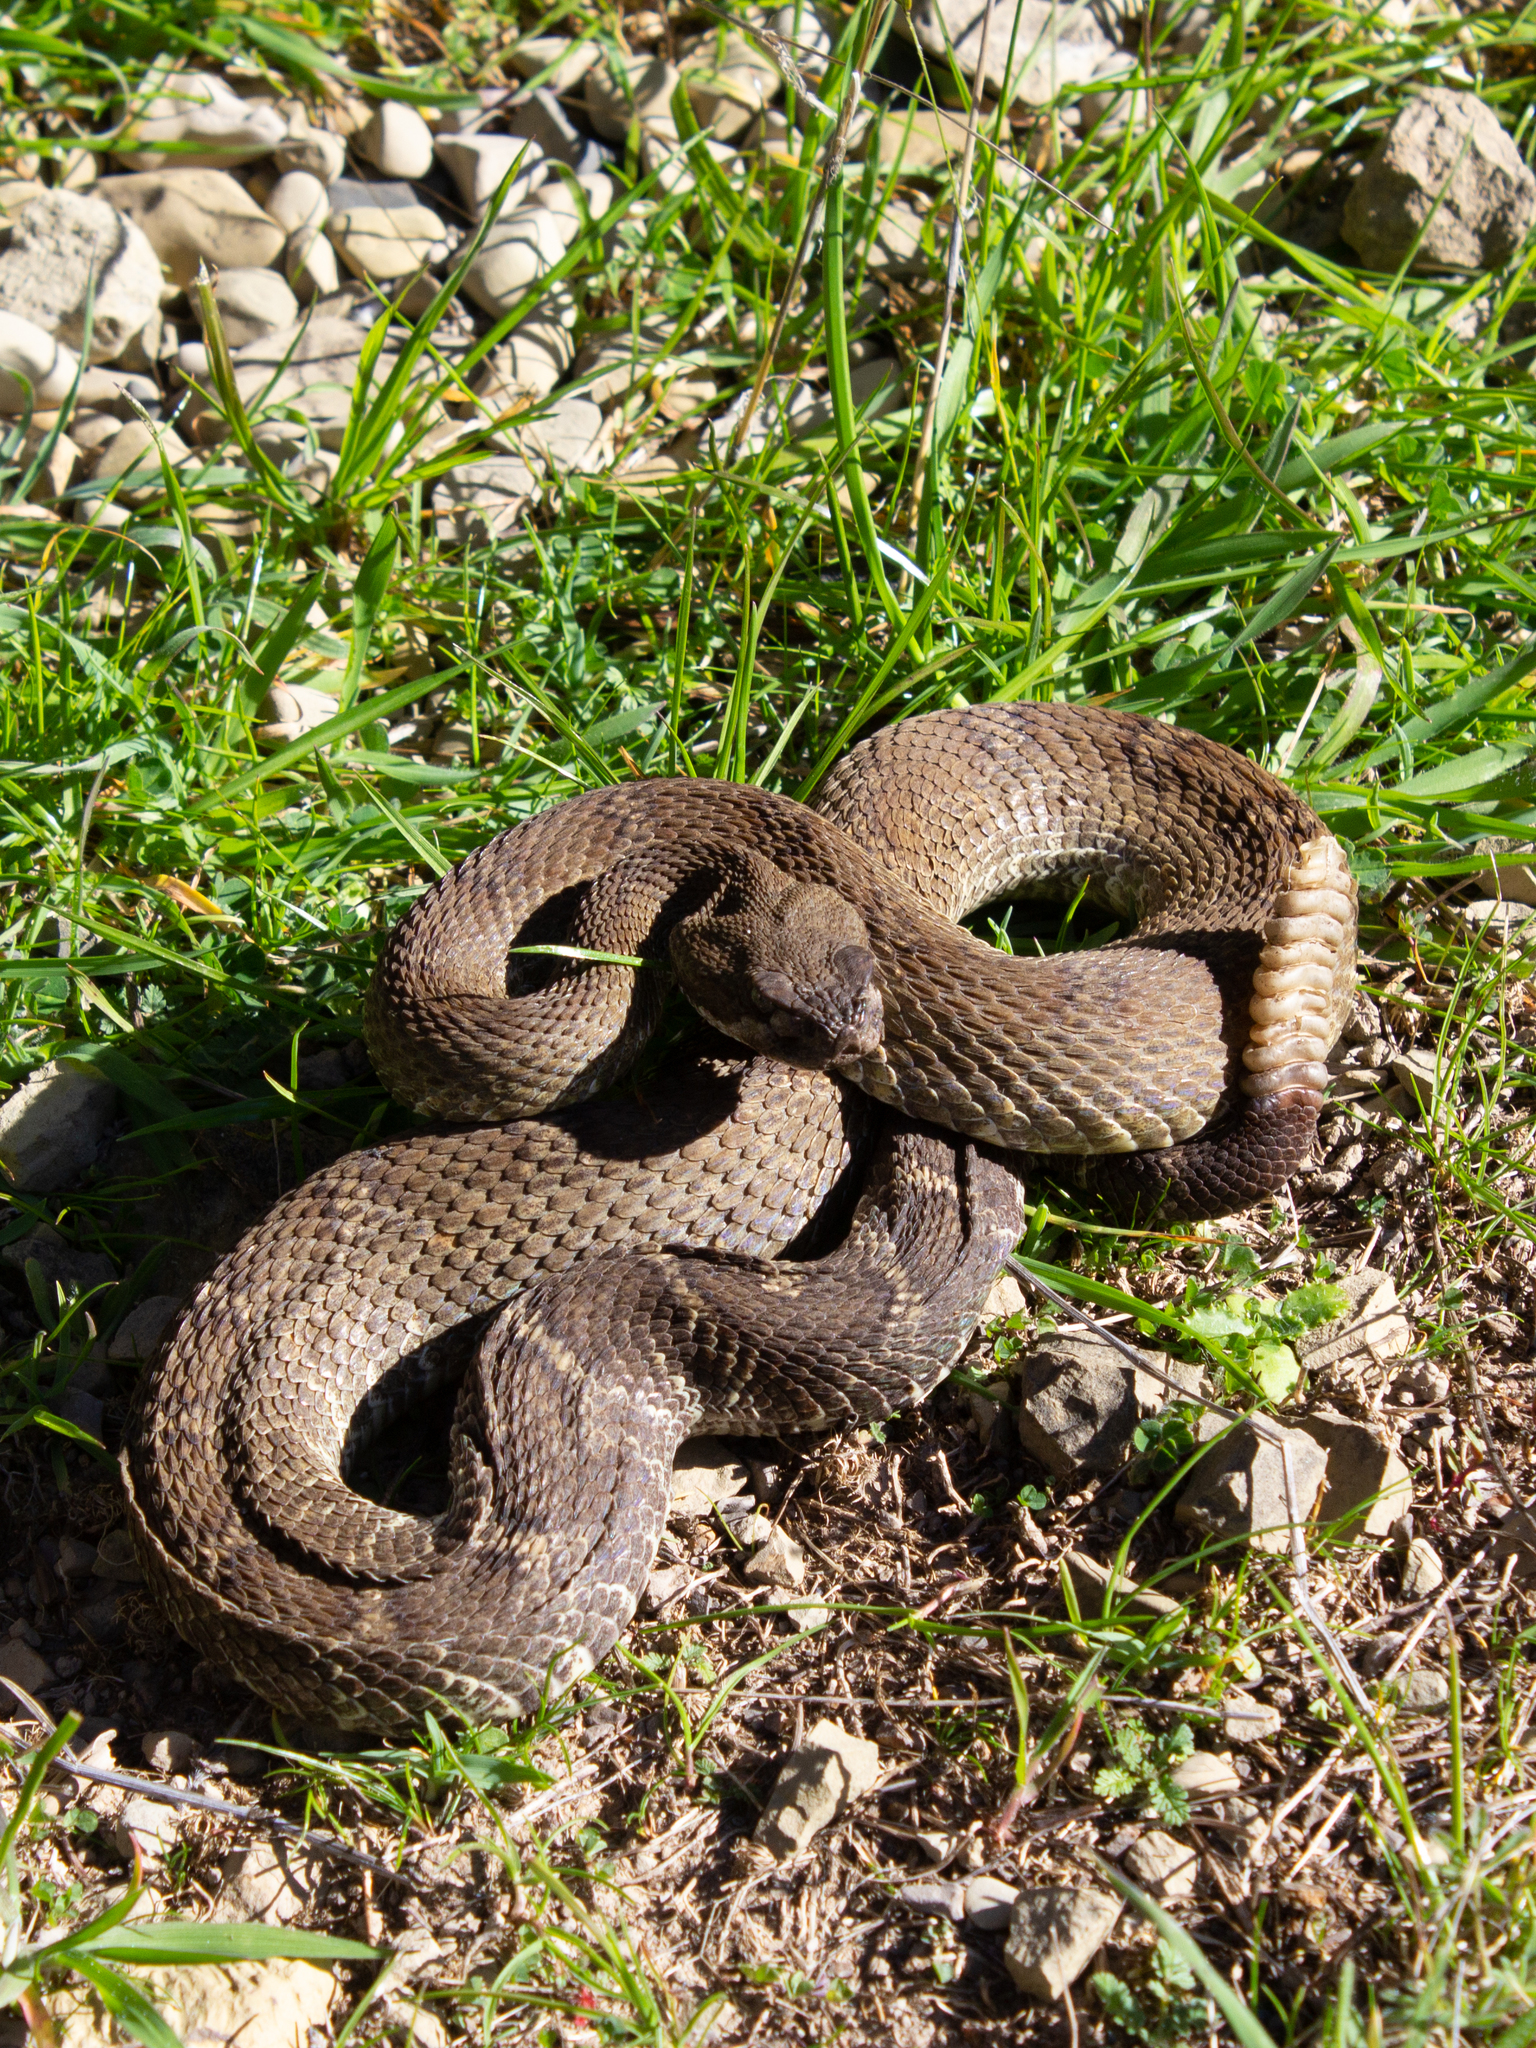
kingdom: Animalia
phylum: Chordata
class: Squamata
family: Viperidae
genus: Crotalus
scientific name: Crotalus oreganus
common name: Abyssus
